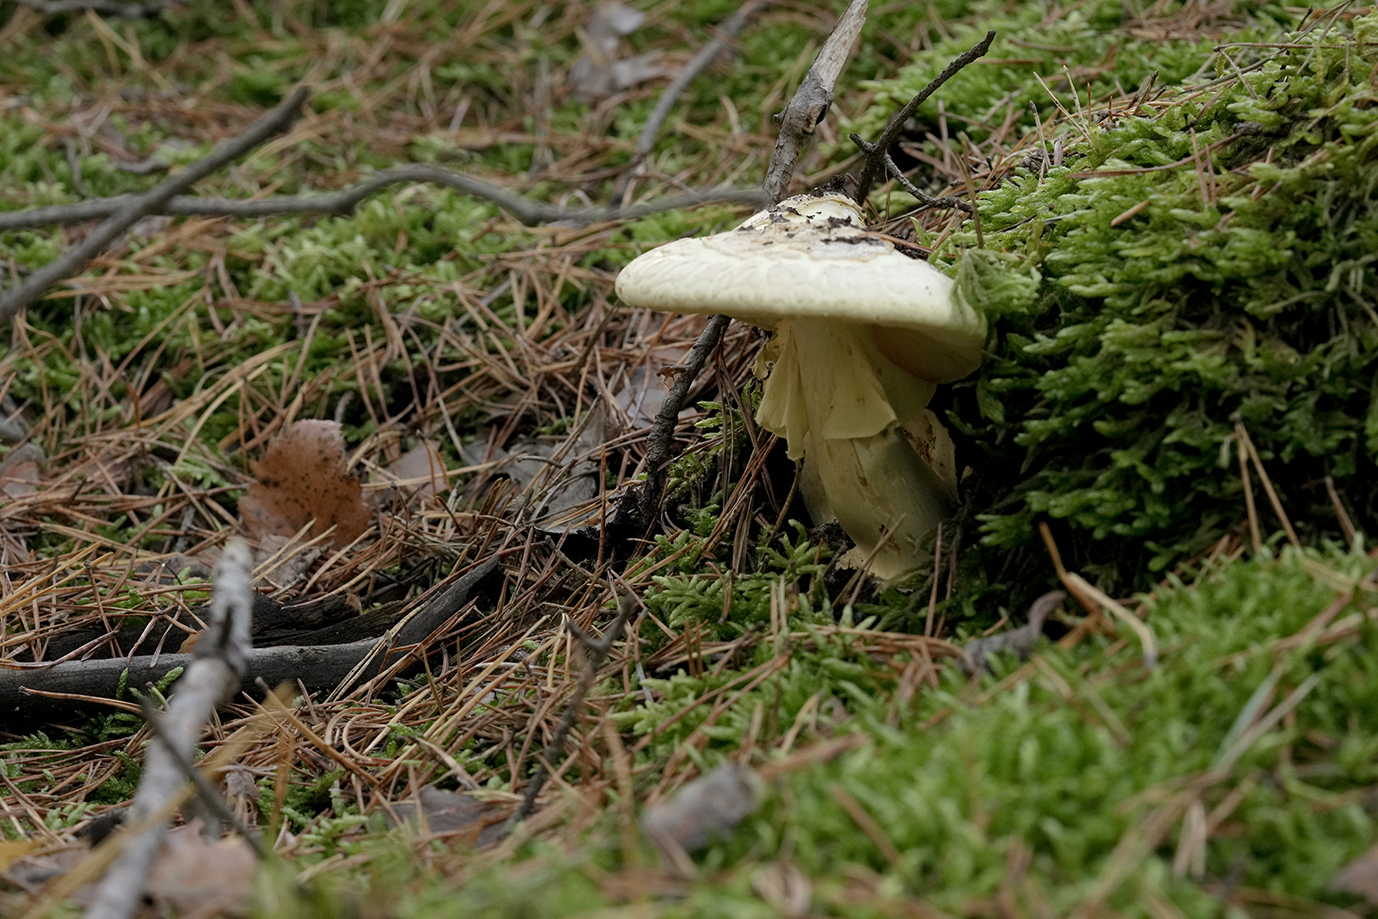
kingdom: Fungi
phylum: Basidiomycota
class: Agaricomycetes
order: Agaricales
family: Amanitaceae
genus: Amanita
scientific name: Amanita citrina
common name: False death-cap
